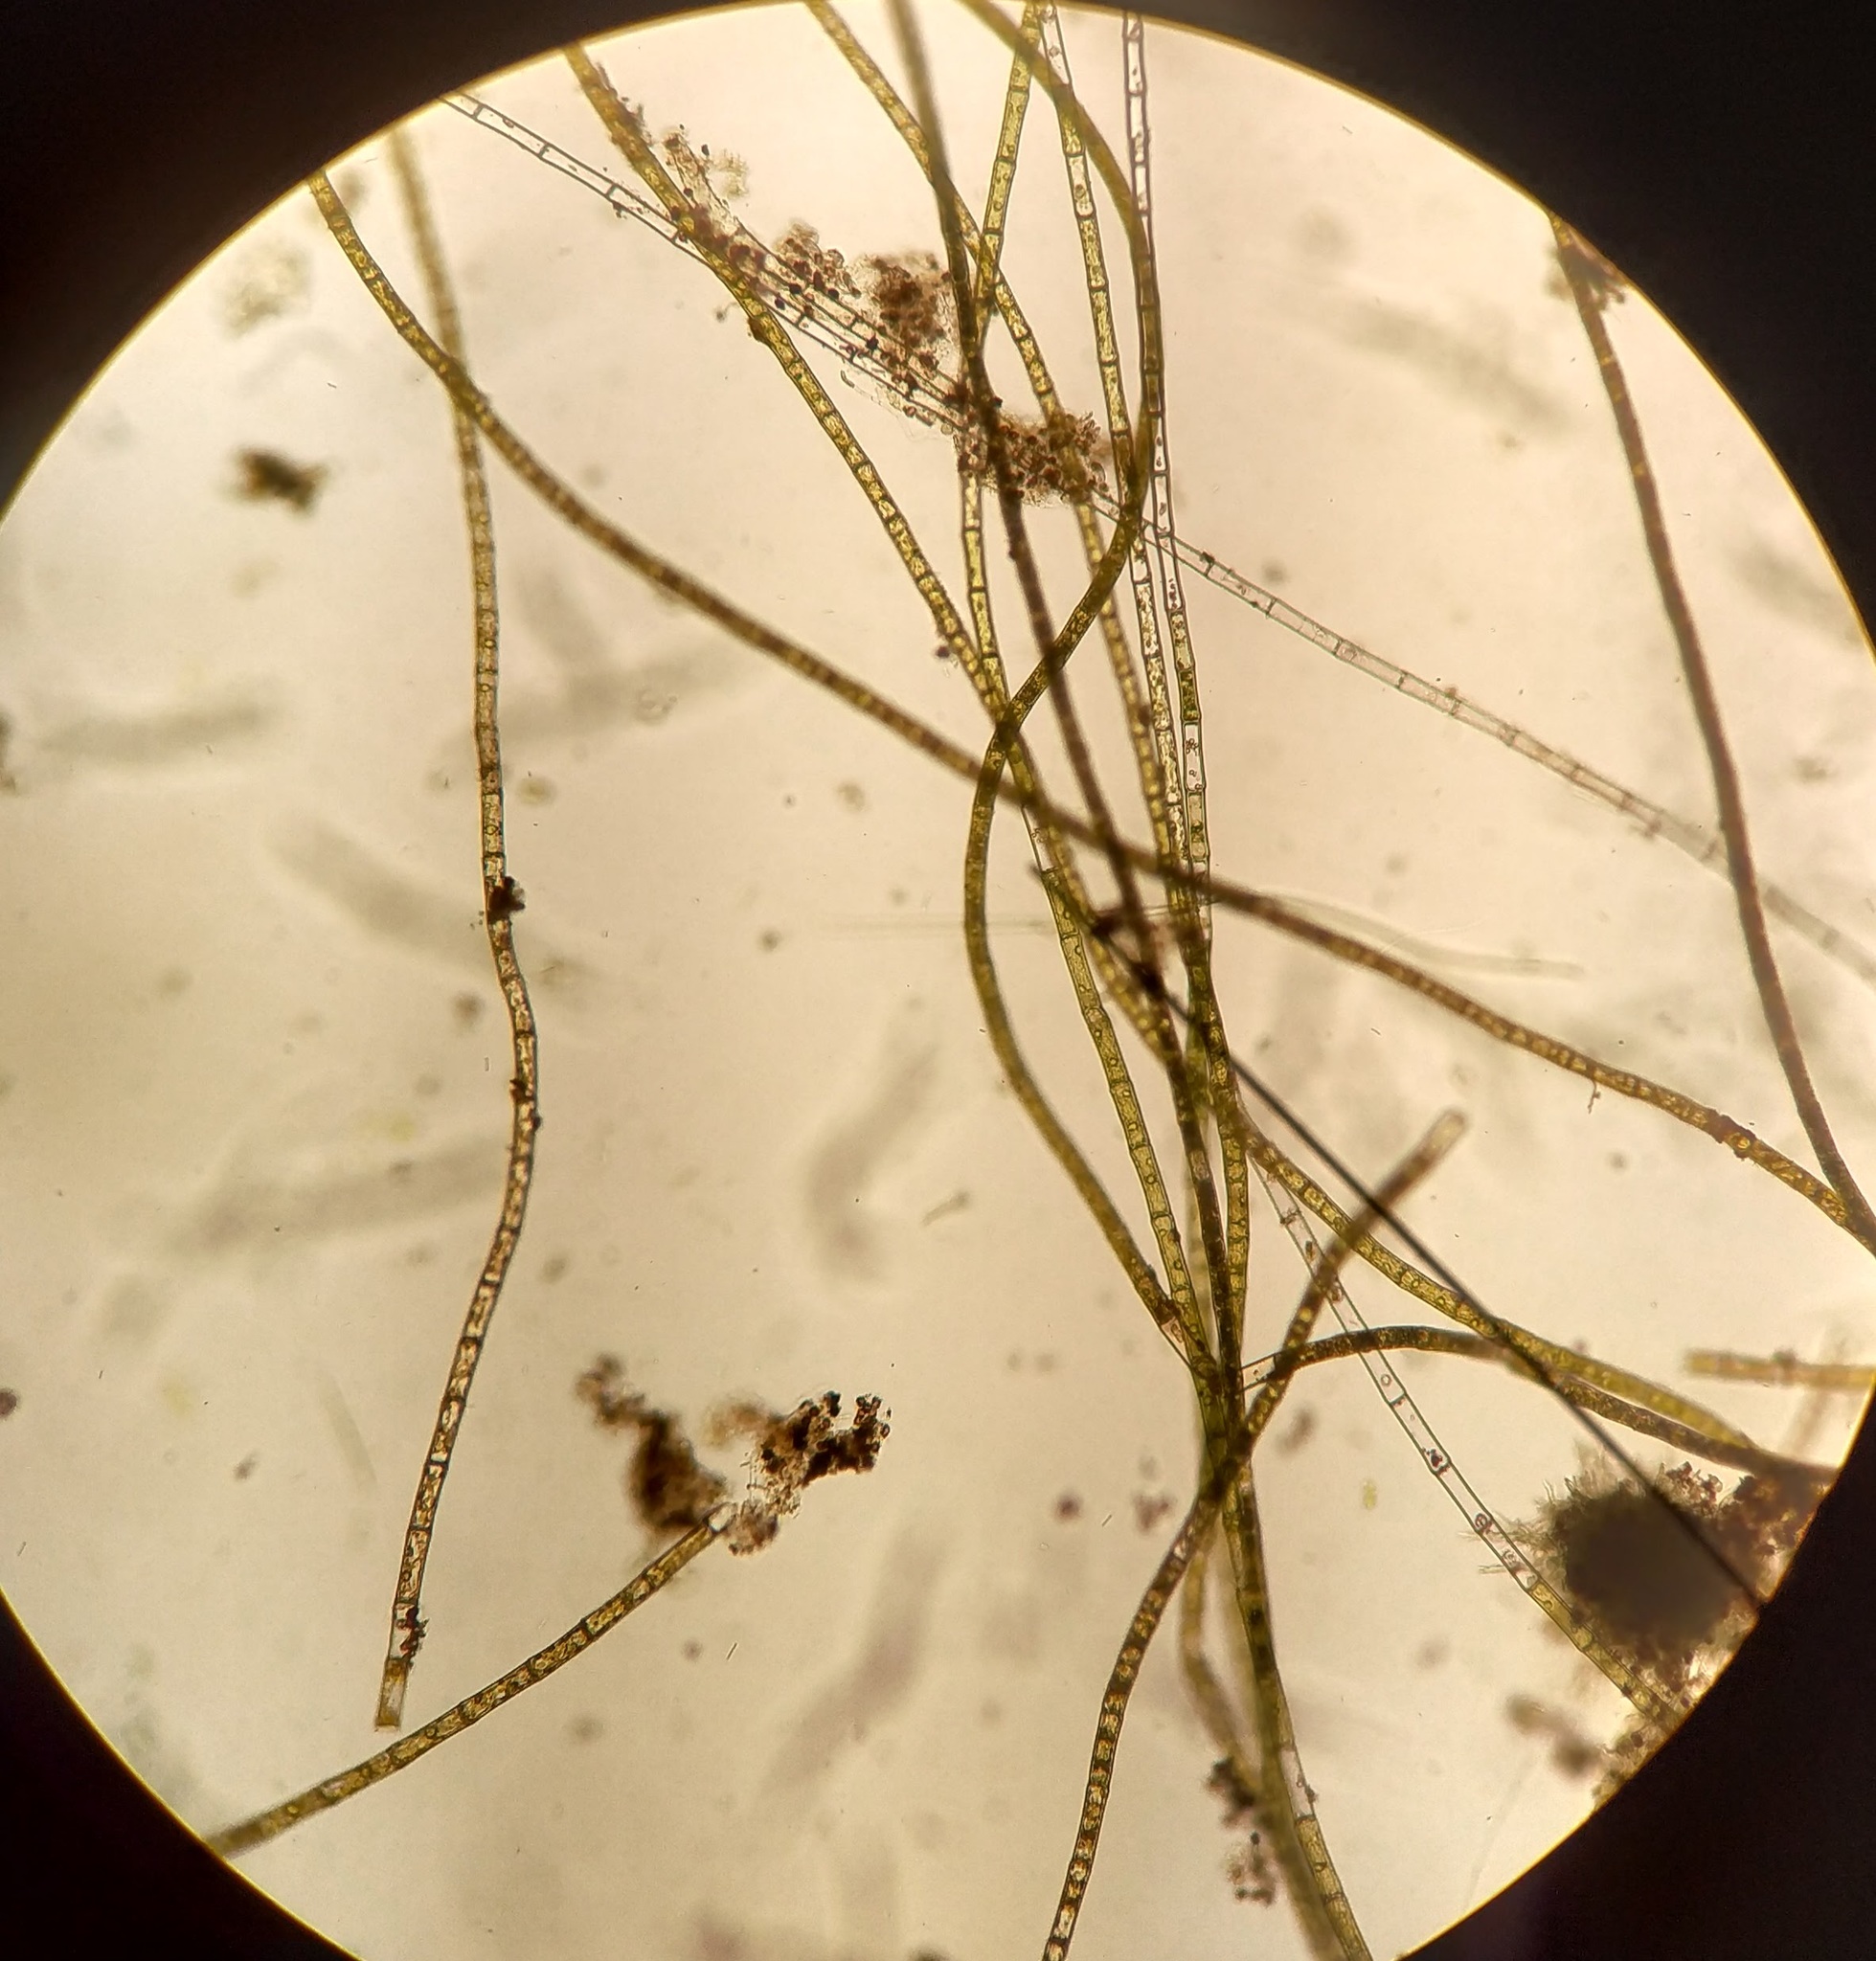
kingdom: Plantae
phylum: Chlorophyta
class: Chlorophyceae
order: Oedogoniales
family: Oedogoniaceae
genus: Oedogonium
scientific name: Oedogonium
